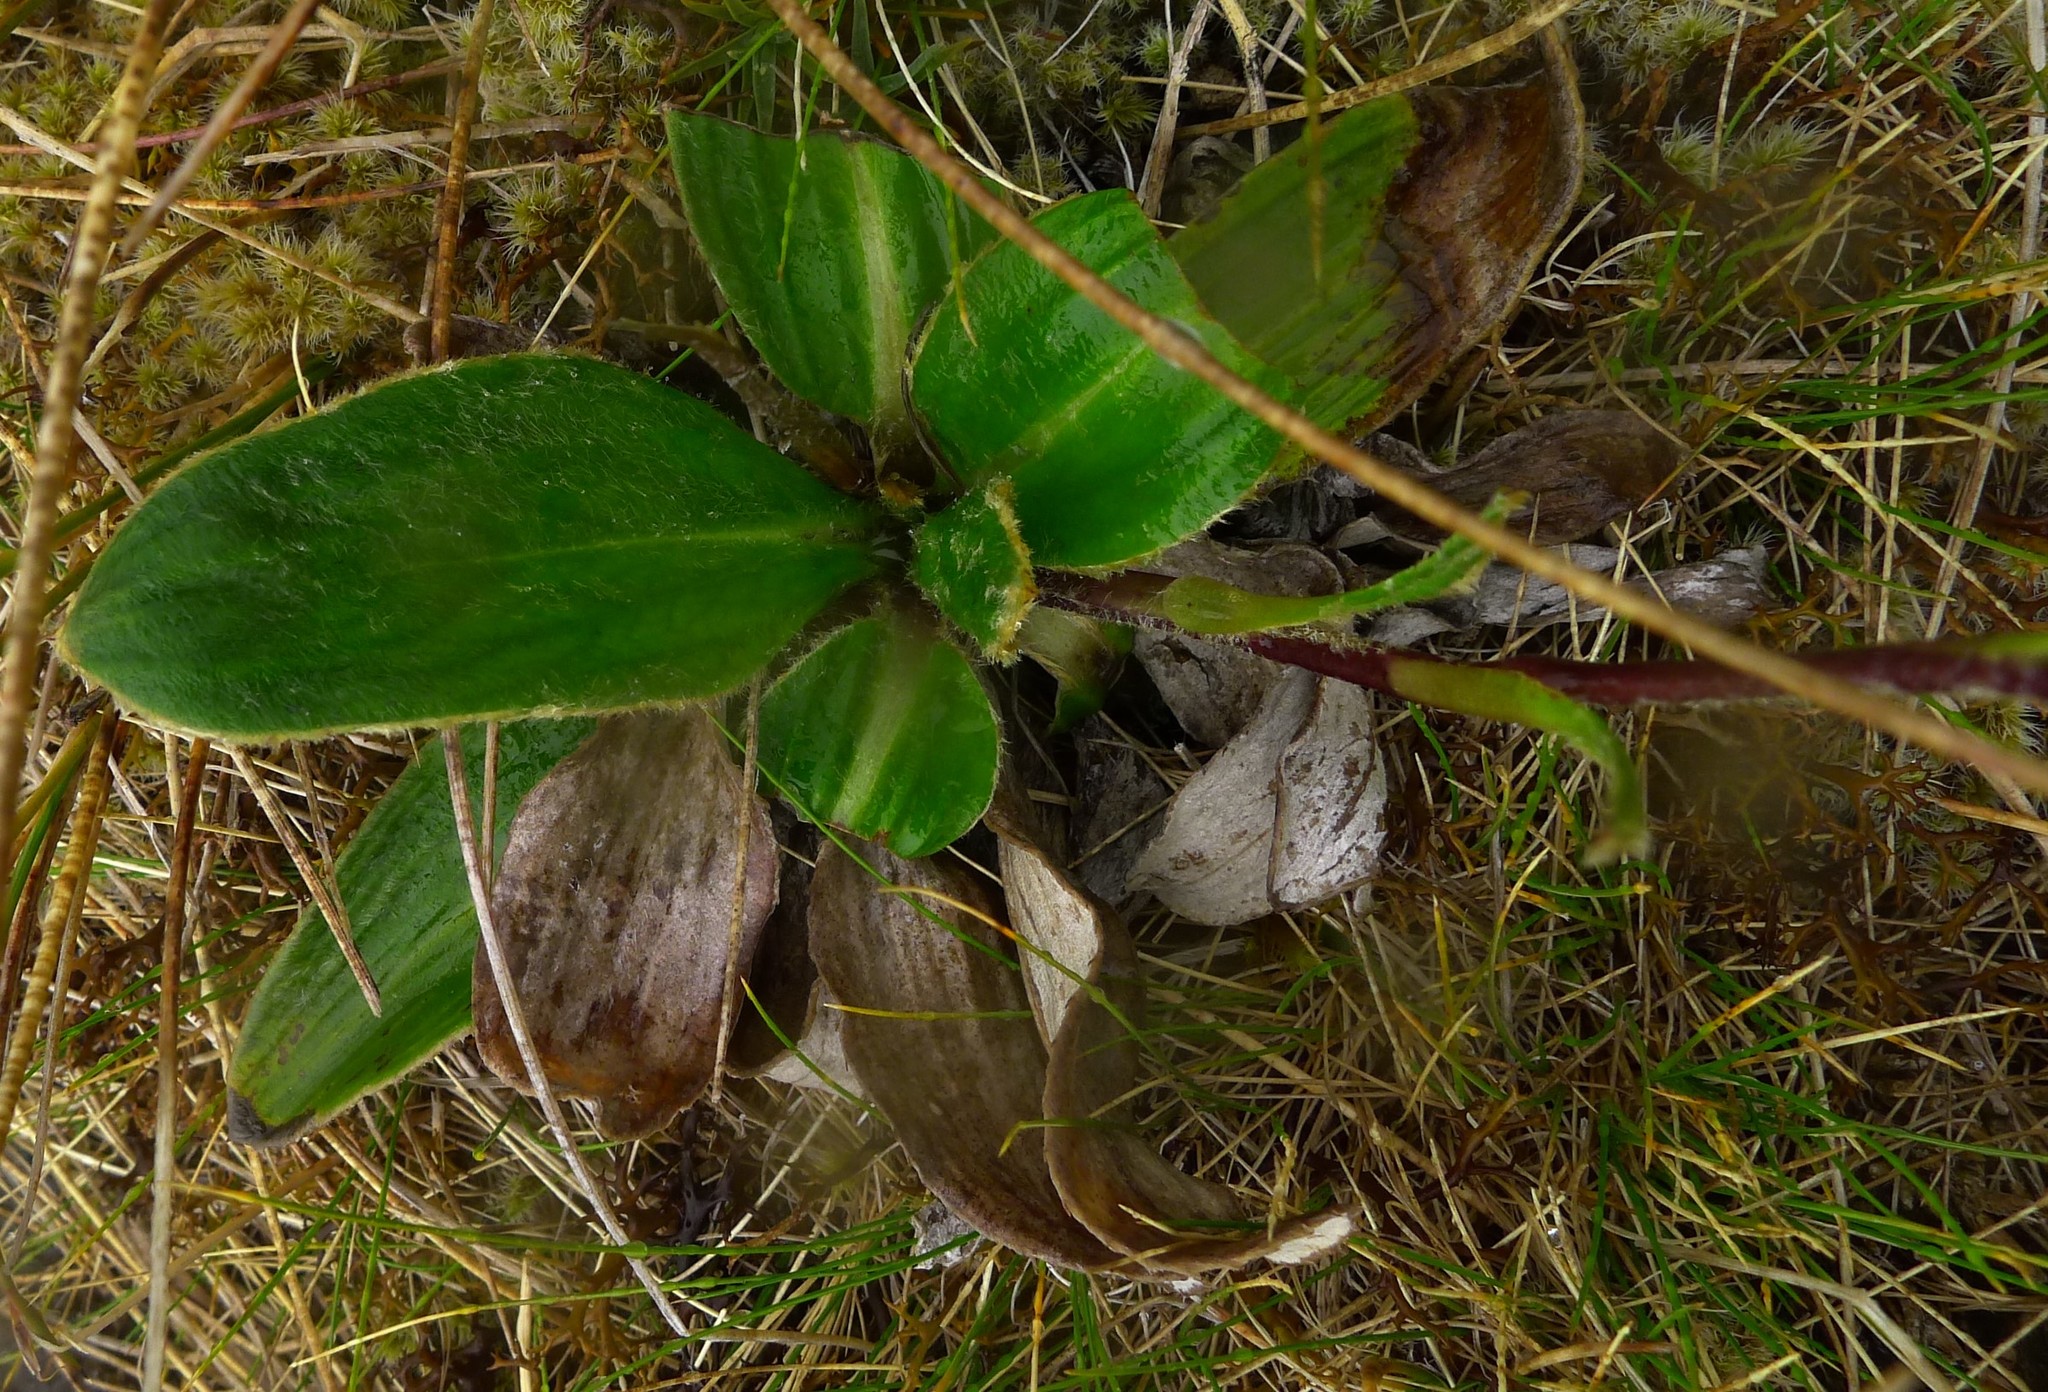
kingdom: Plantae
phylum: Tracheophyta
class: Magnoliopsida
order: Asterales
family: Asteraceae
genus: Celmisia
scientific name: Celmisia verbascifolia
